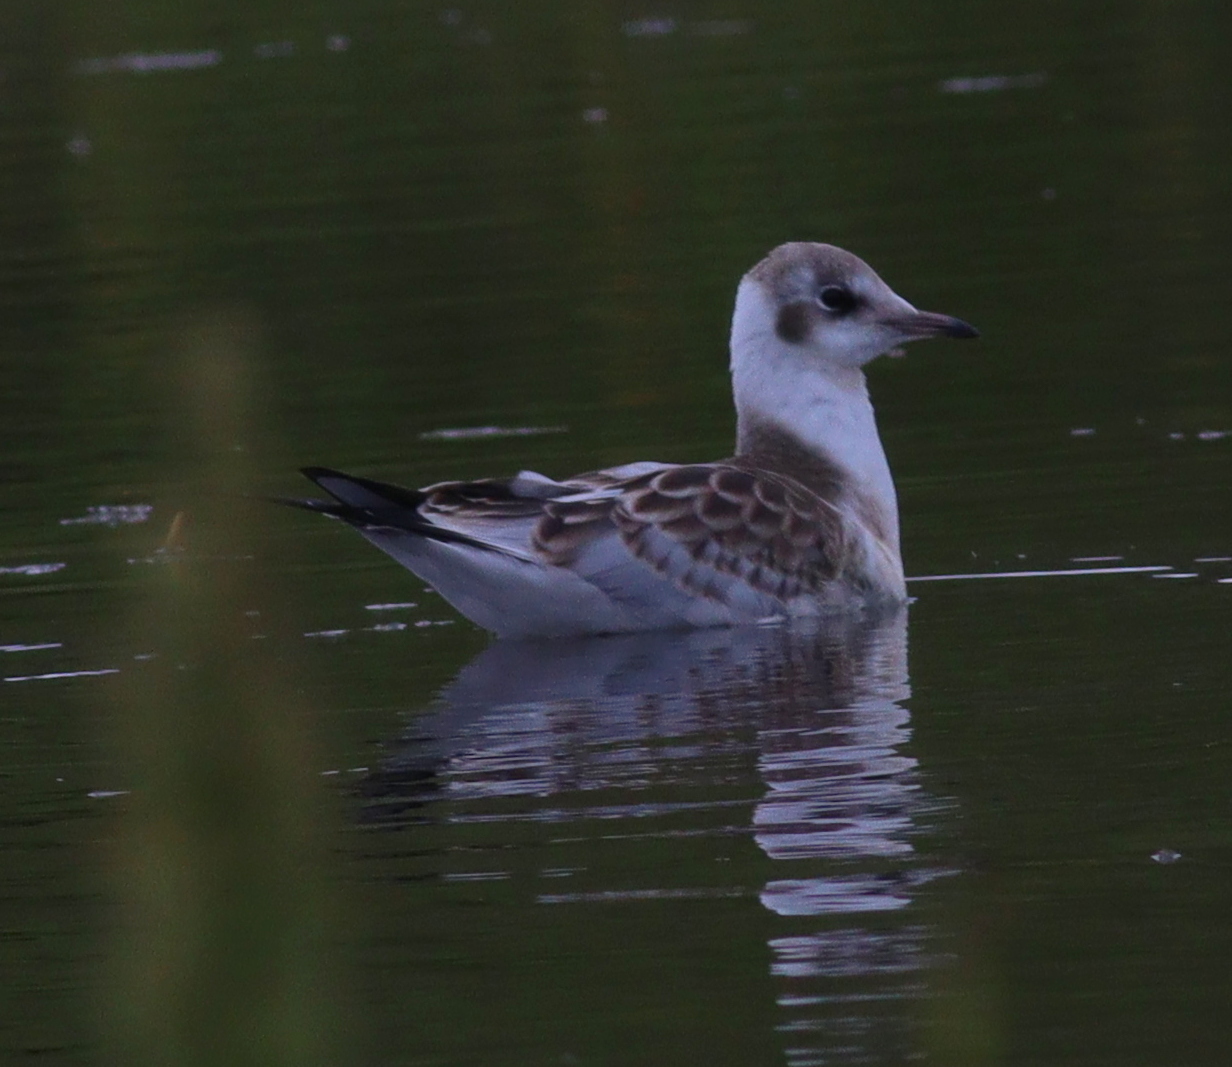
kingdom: Animalia
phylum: Chordata
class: Aves
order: Charadriiformes
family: Laridae
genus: Chroicocephalus
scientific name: Chroicocephalus ridibundus
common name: Black-headed gull
